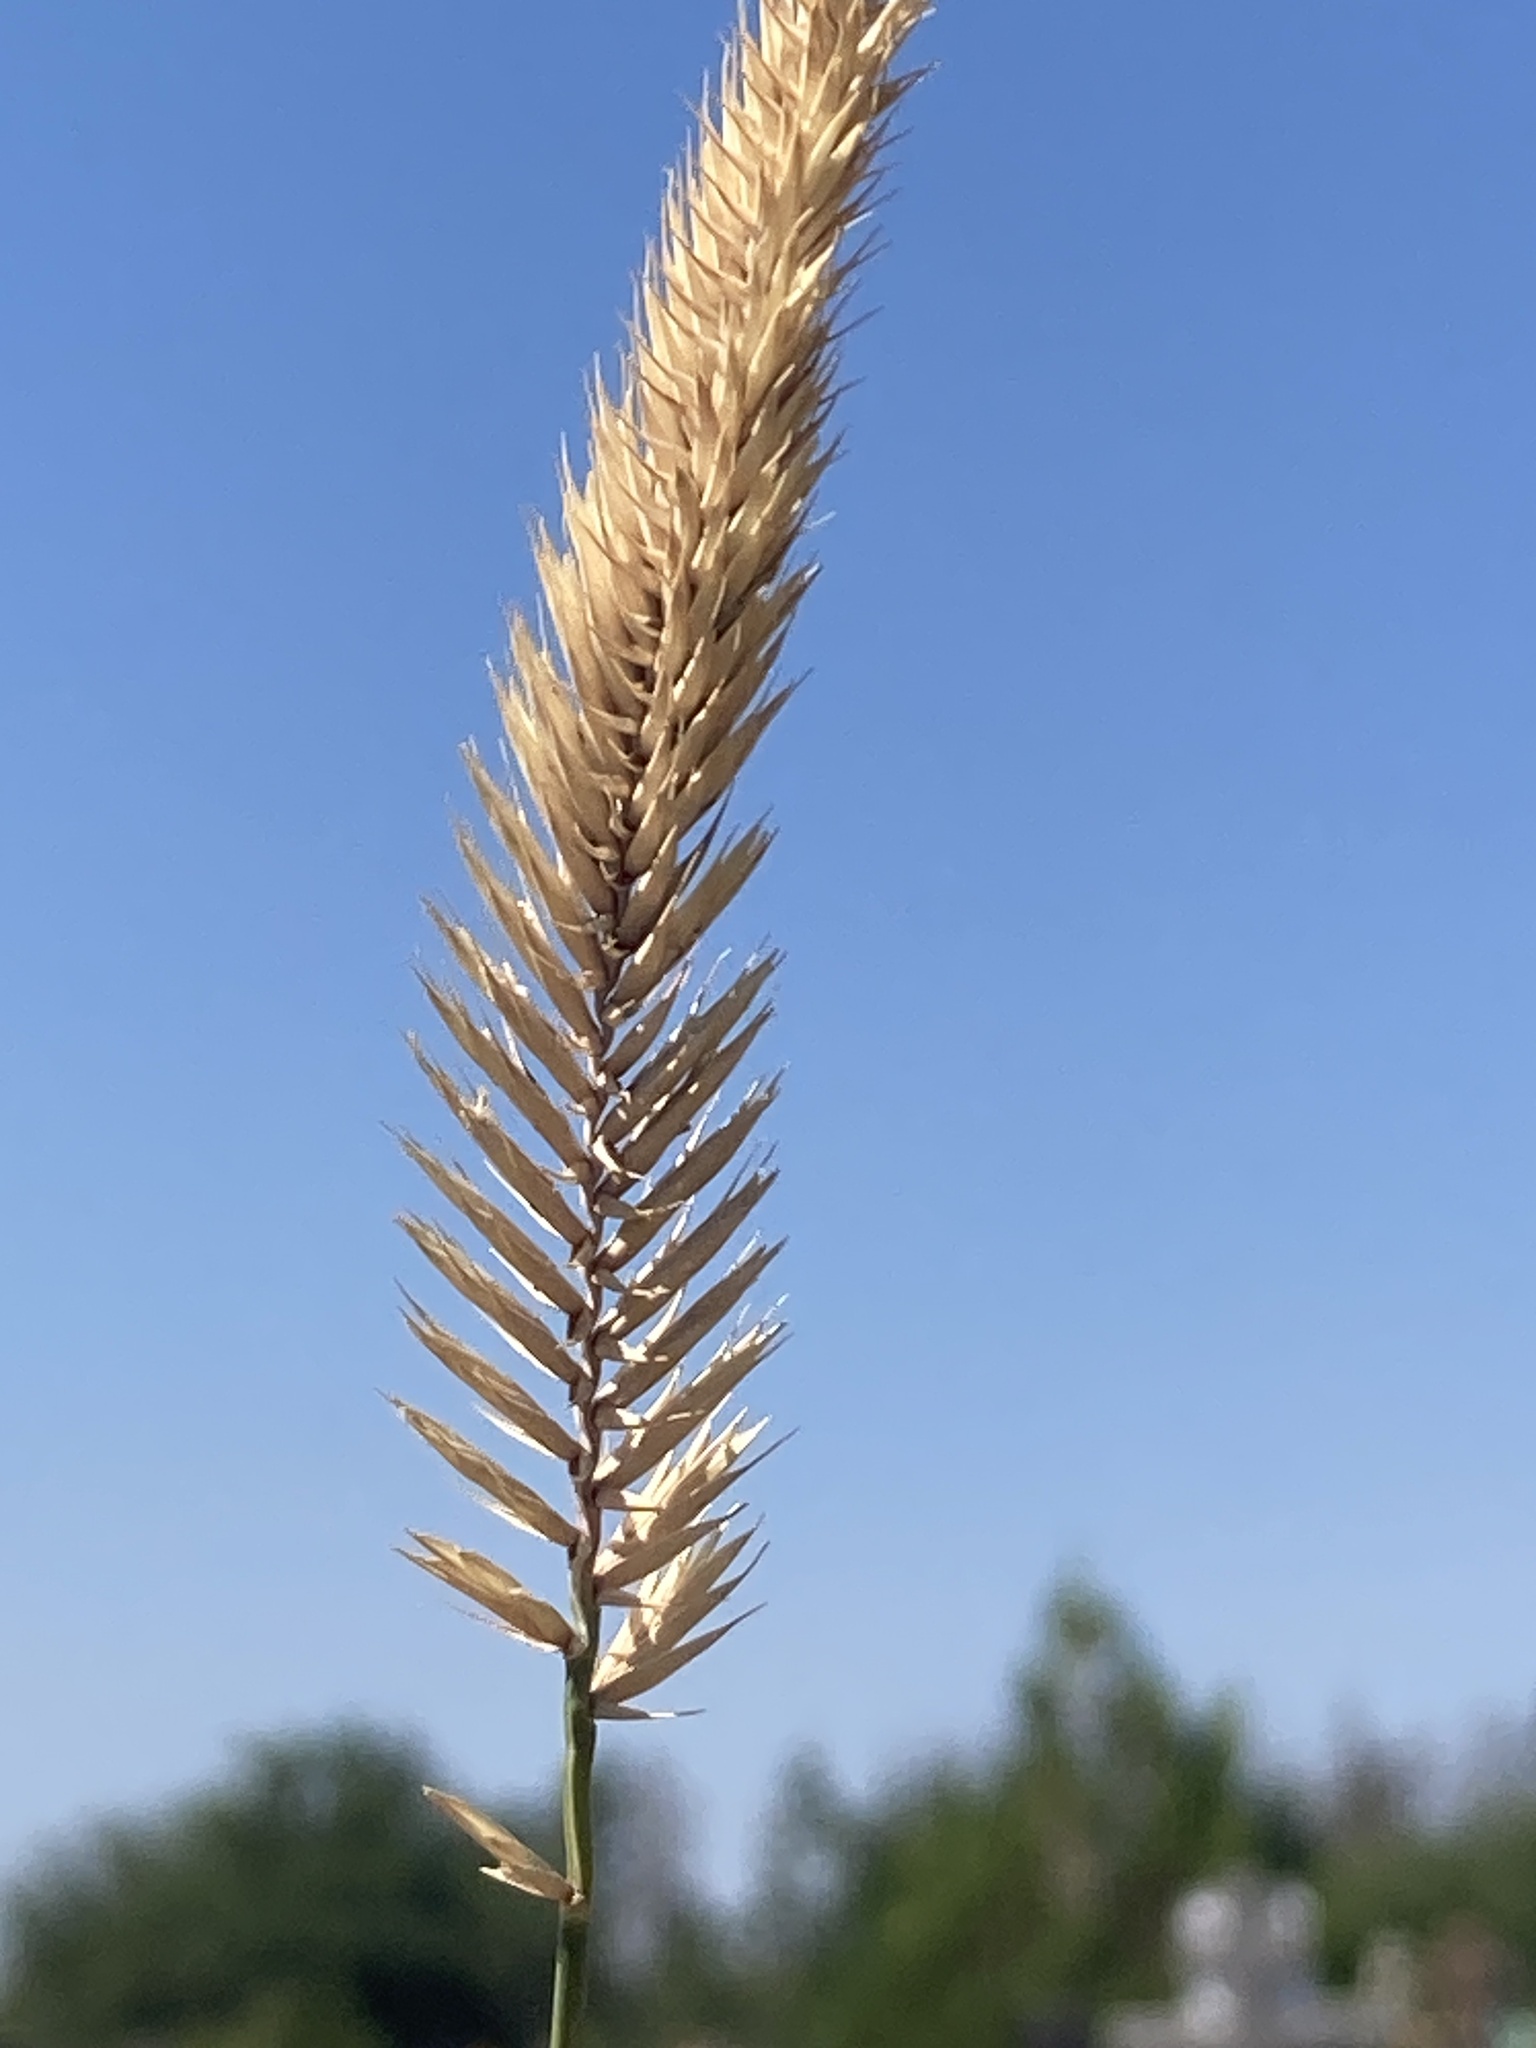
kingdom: Plantae
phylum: Tracheophyta
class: Liliopsida
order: Poales
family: Poaceae
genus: Agropyron
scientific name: Agropyron cristatum
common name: Crested wheatgrass
